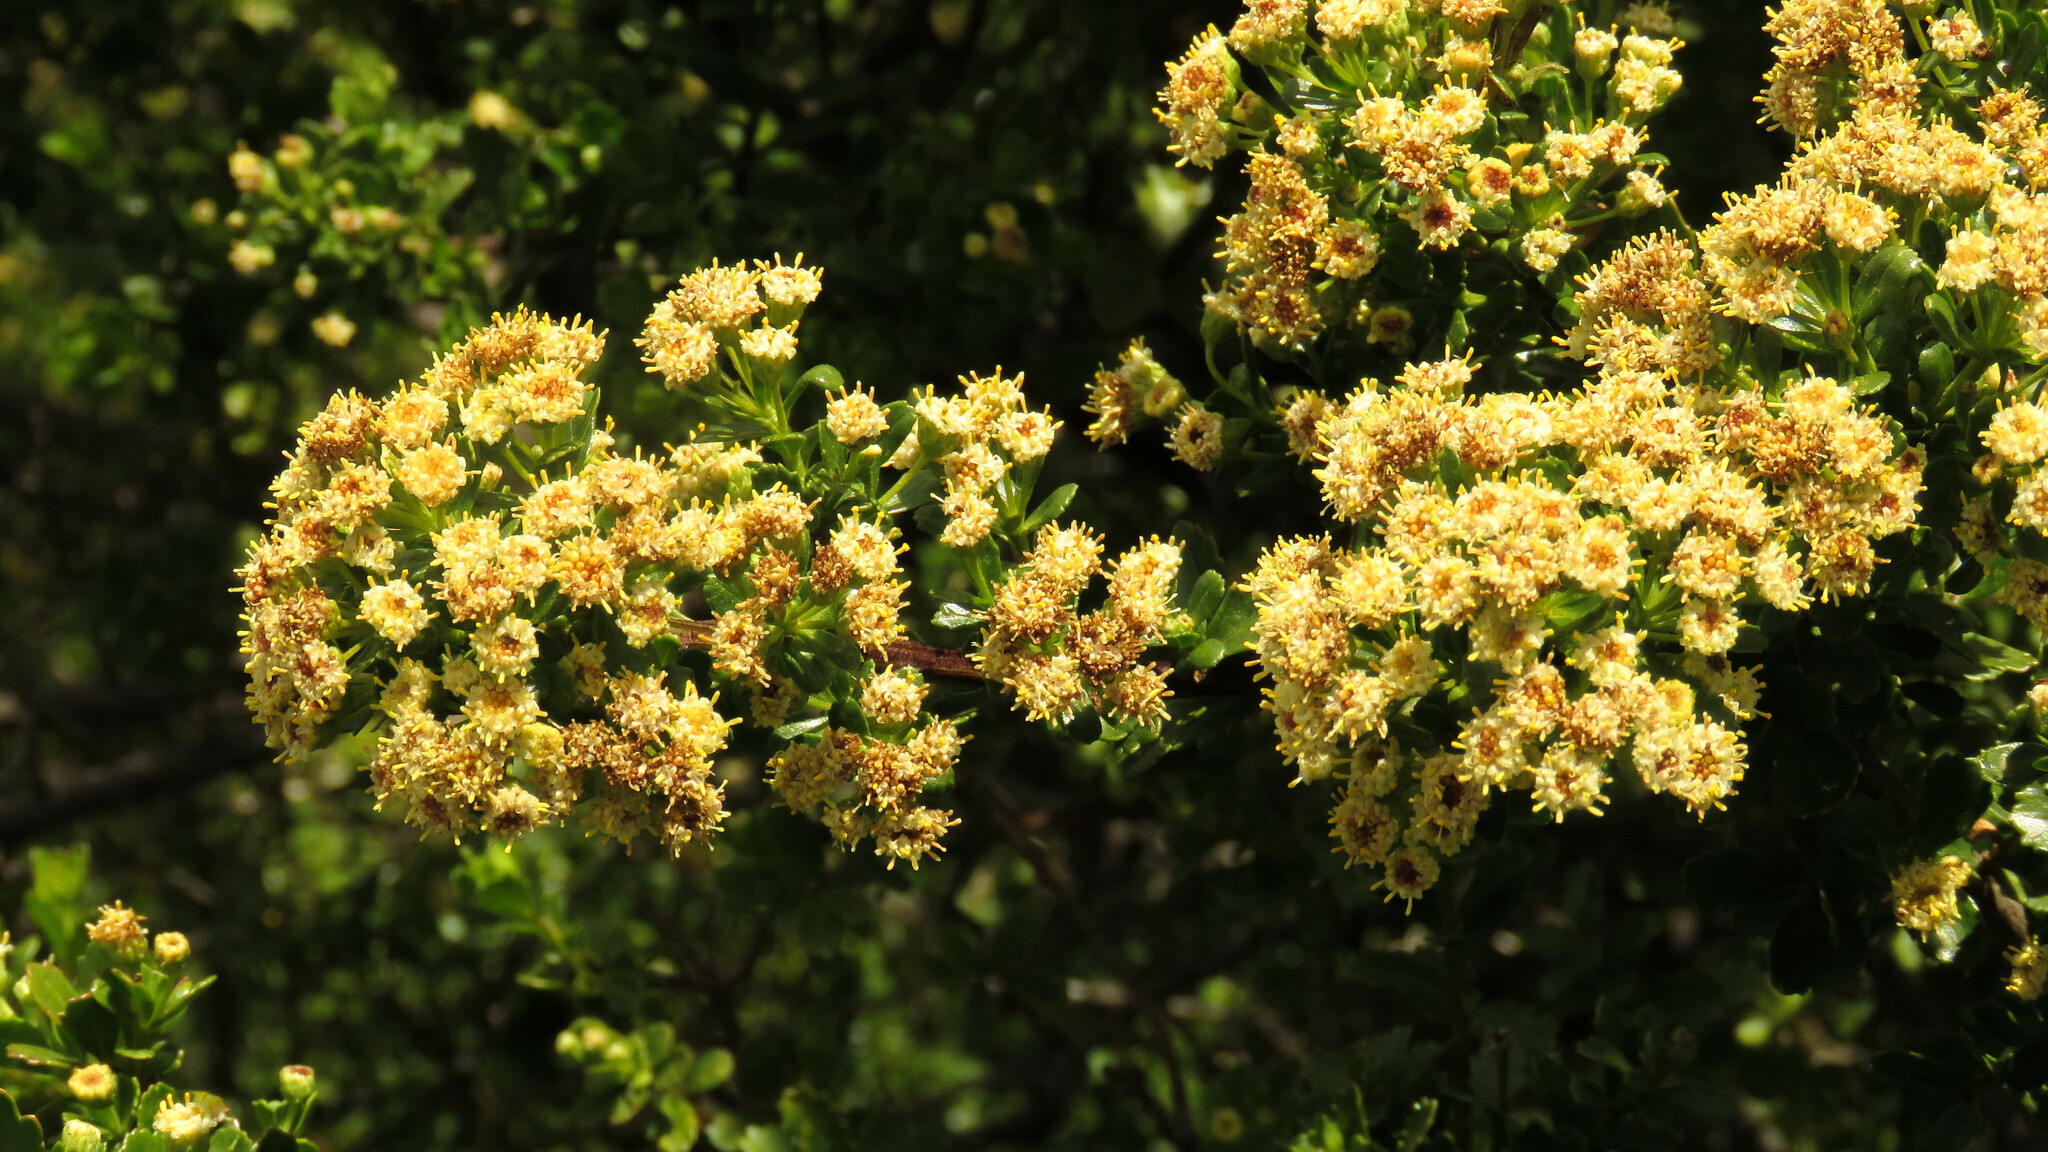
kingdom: Plantae
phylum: Tracheophyta
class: Magnoliopsida
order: Asterales
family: Asteraceae
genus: Baccharis
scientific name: Baccharis neaei
